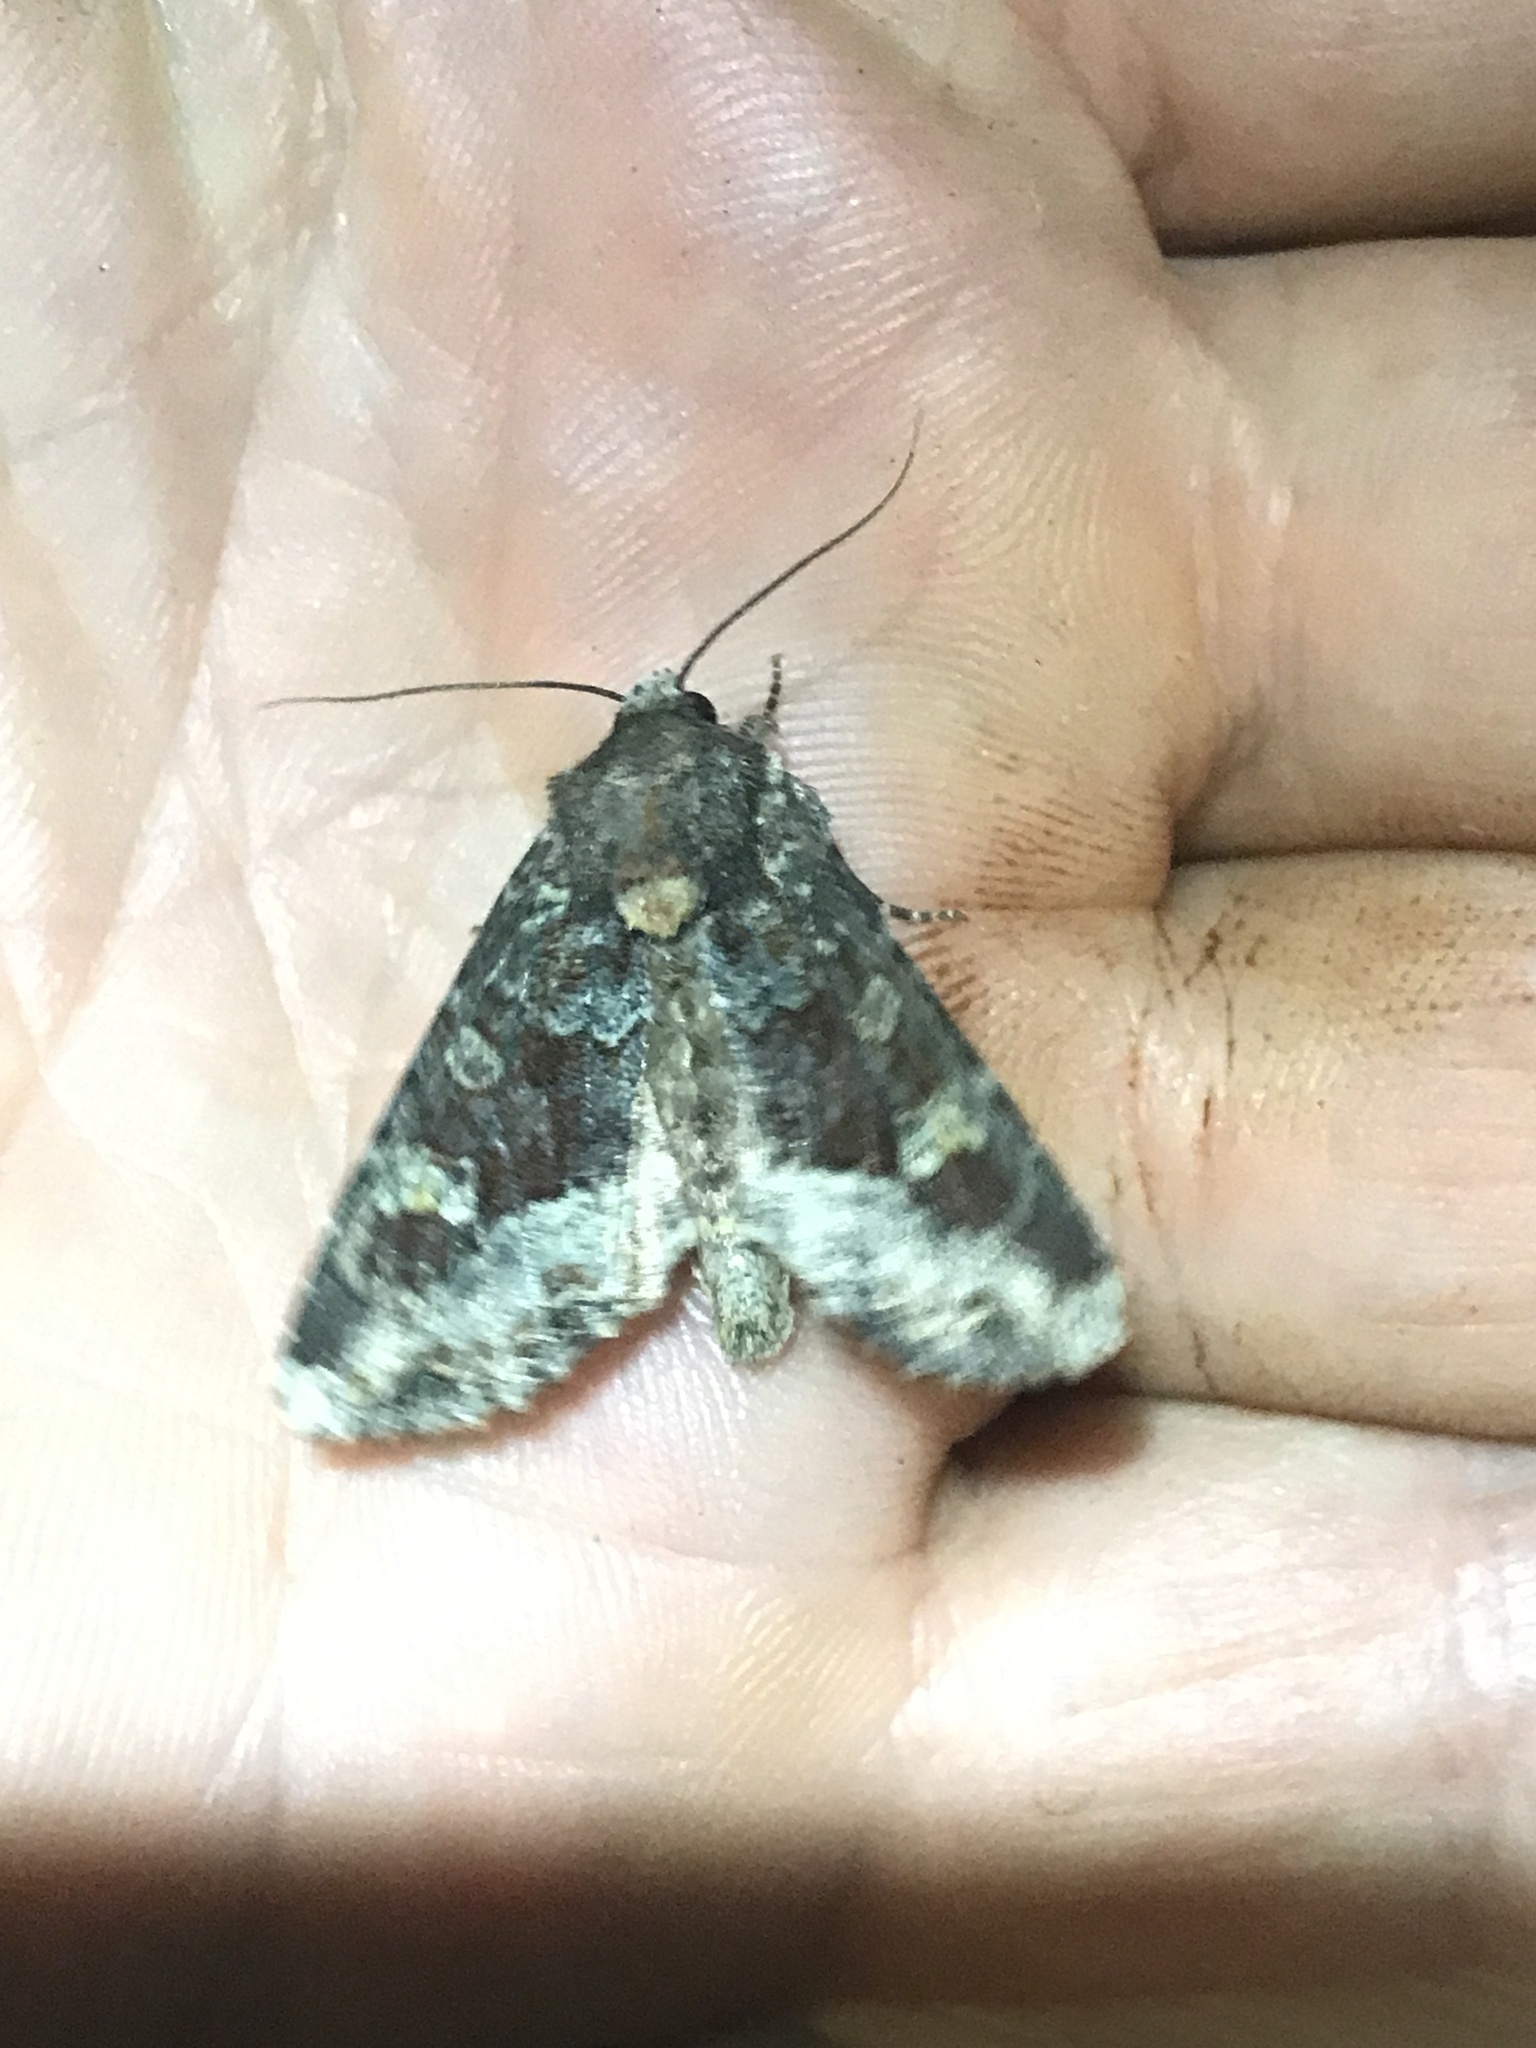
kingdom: Animalia
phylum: Arthropoda
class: Insecta
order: Lepidoptera
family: Noctuidae
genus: Apamea
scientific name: Apamea amputatrix
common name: Yellow-headed cutworm moth
